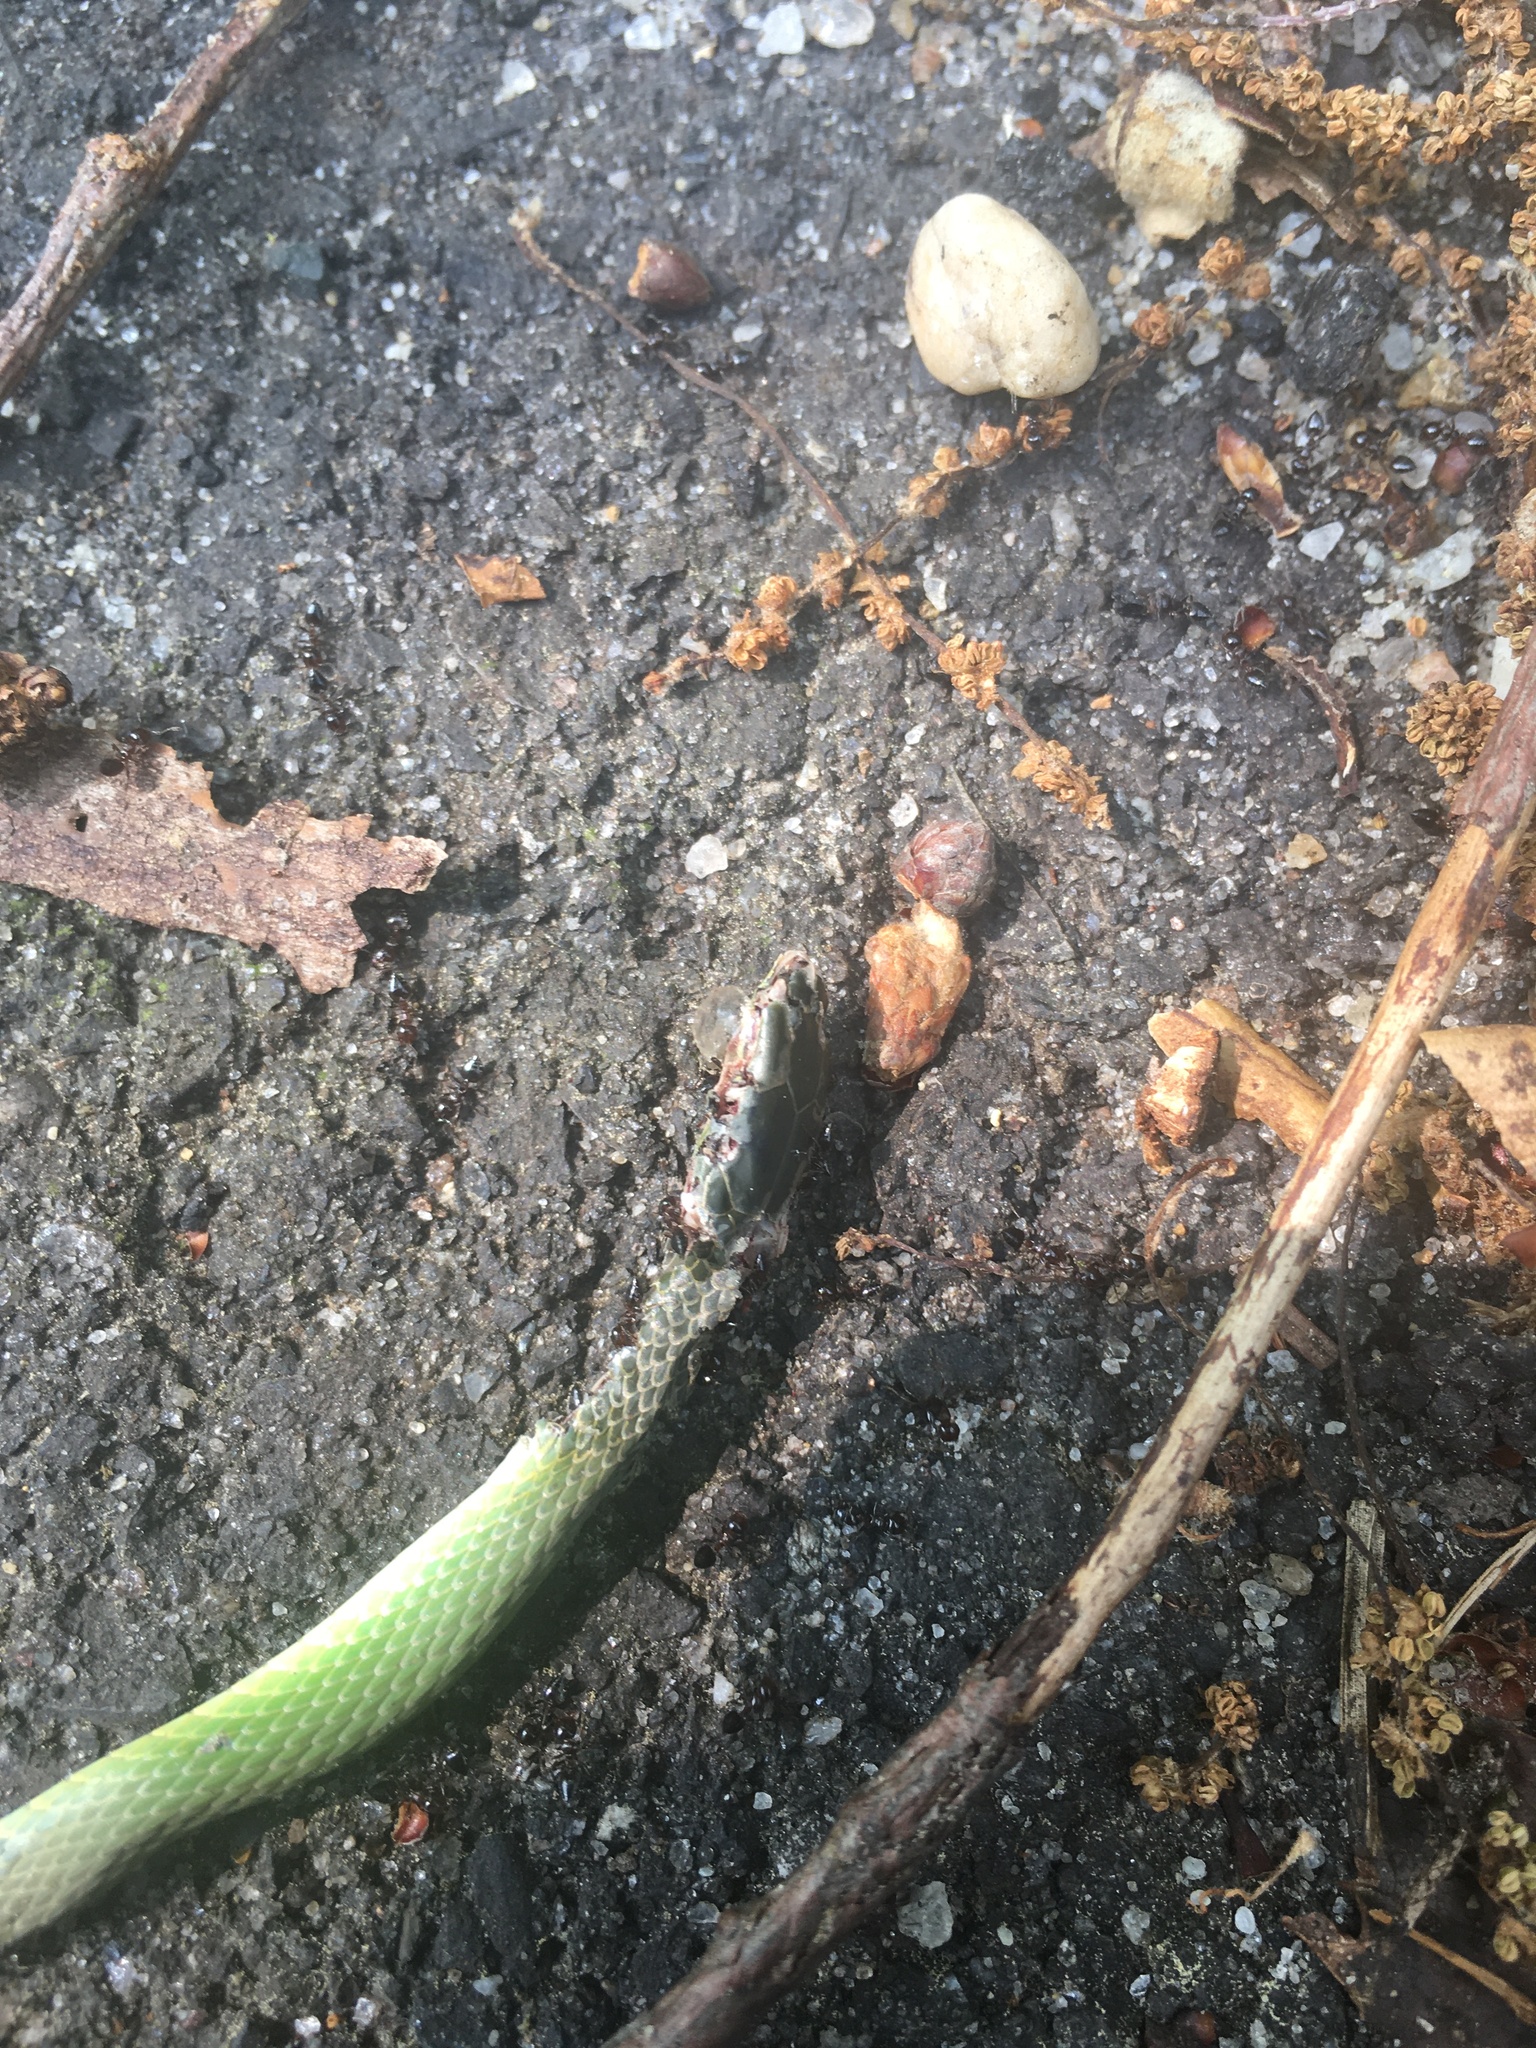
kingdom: Animalia
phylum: Chordata
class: Squamata
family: Colubridae
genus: Opheodrys
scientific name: Opheodrys aestivus
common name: Rough greensnake
